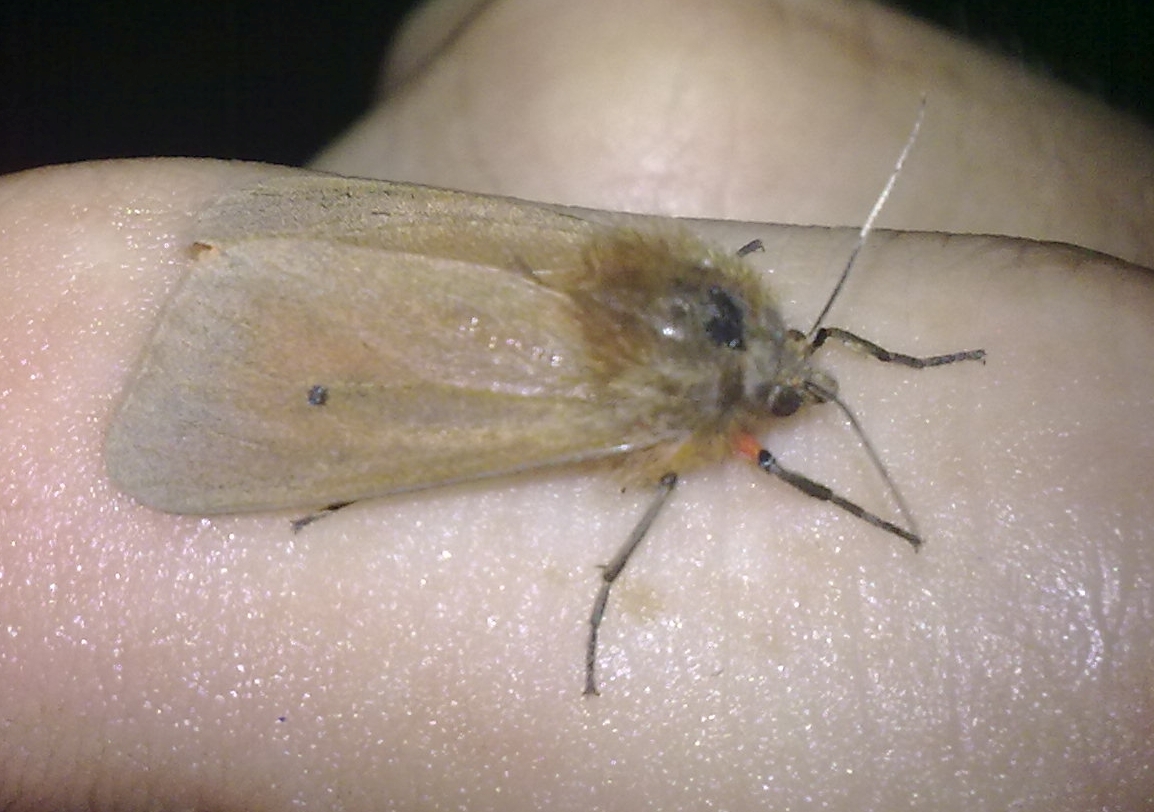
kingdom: Animalia
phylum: Arthropoda
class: Insecta
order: Lepidoptera
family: Erebidae
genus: Phragmatobia
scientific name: Phragmatobia fuliginosa
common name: Ruby tiger
